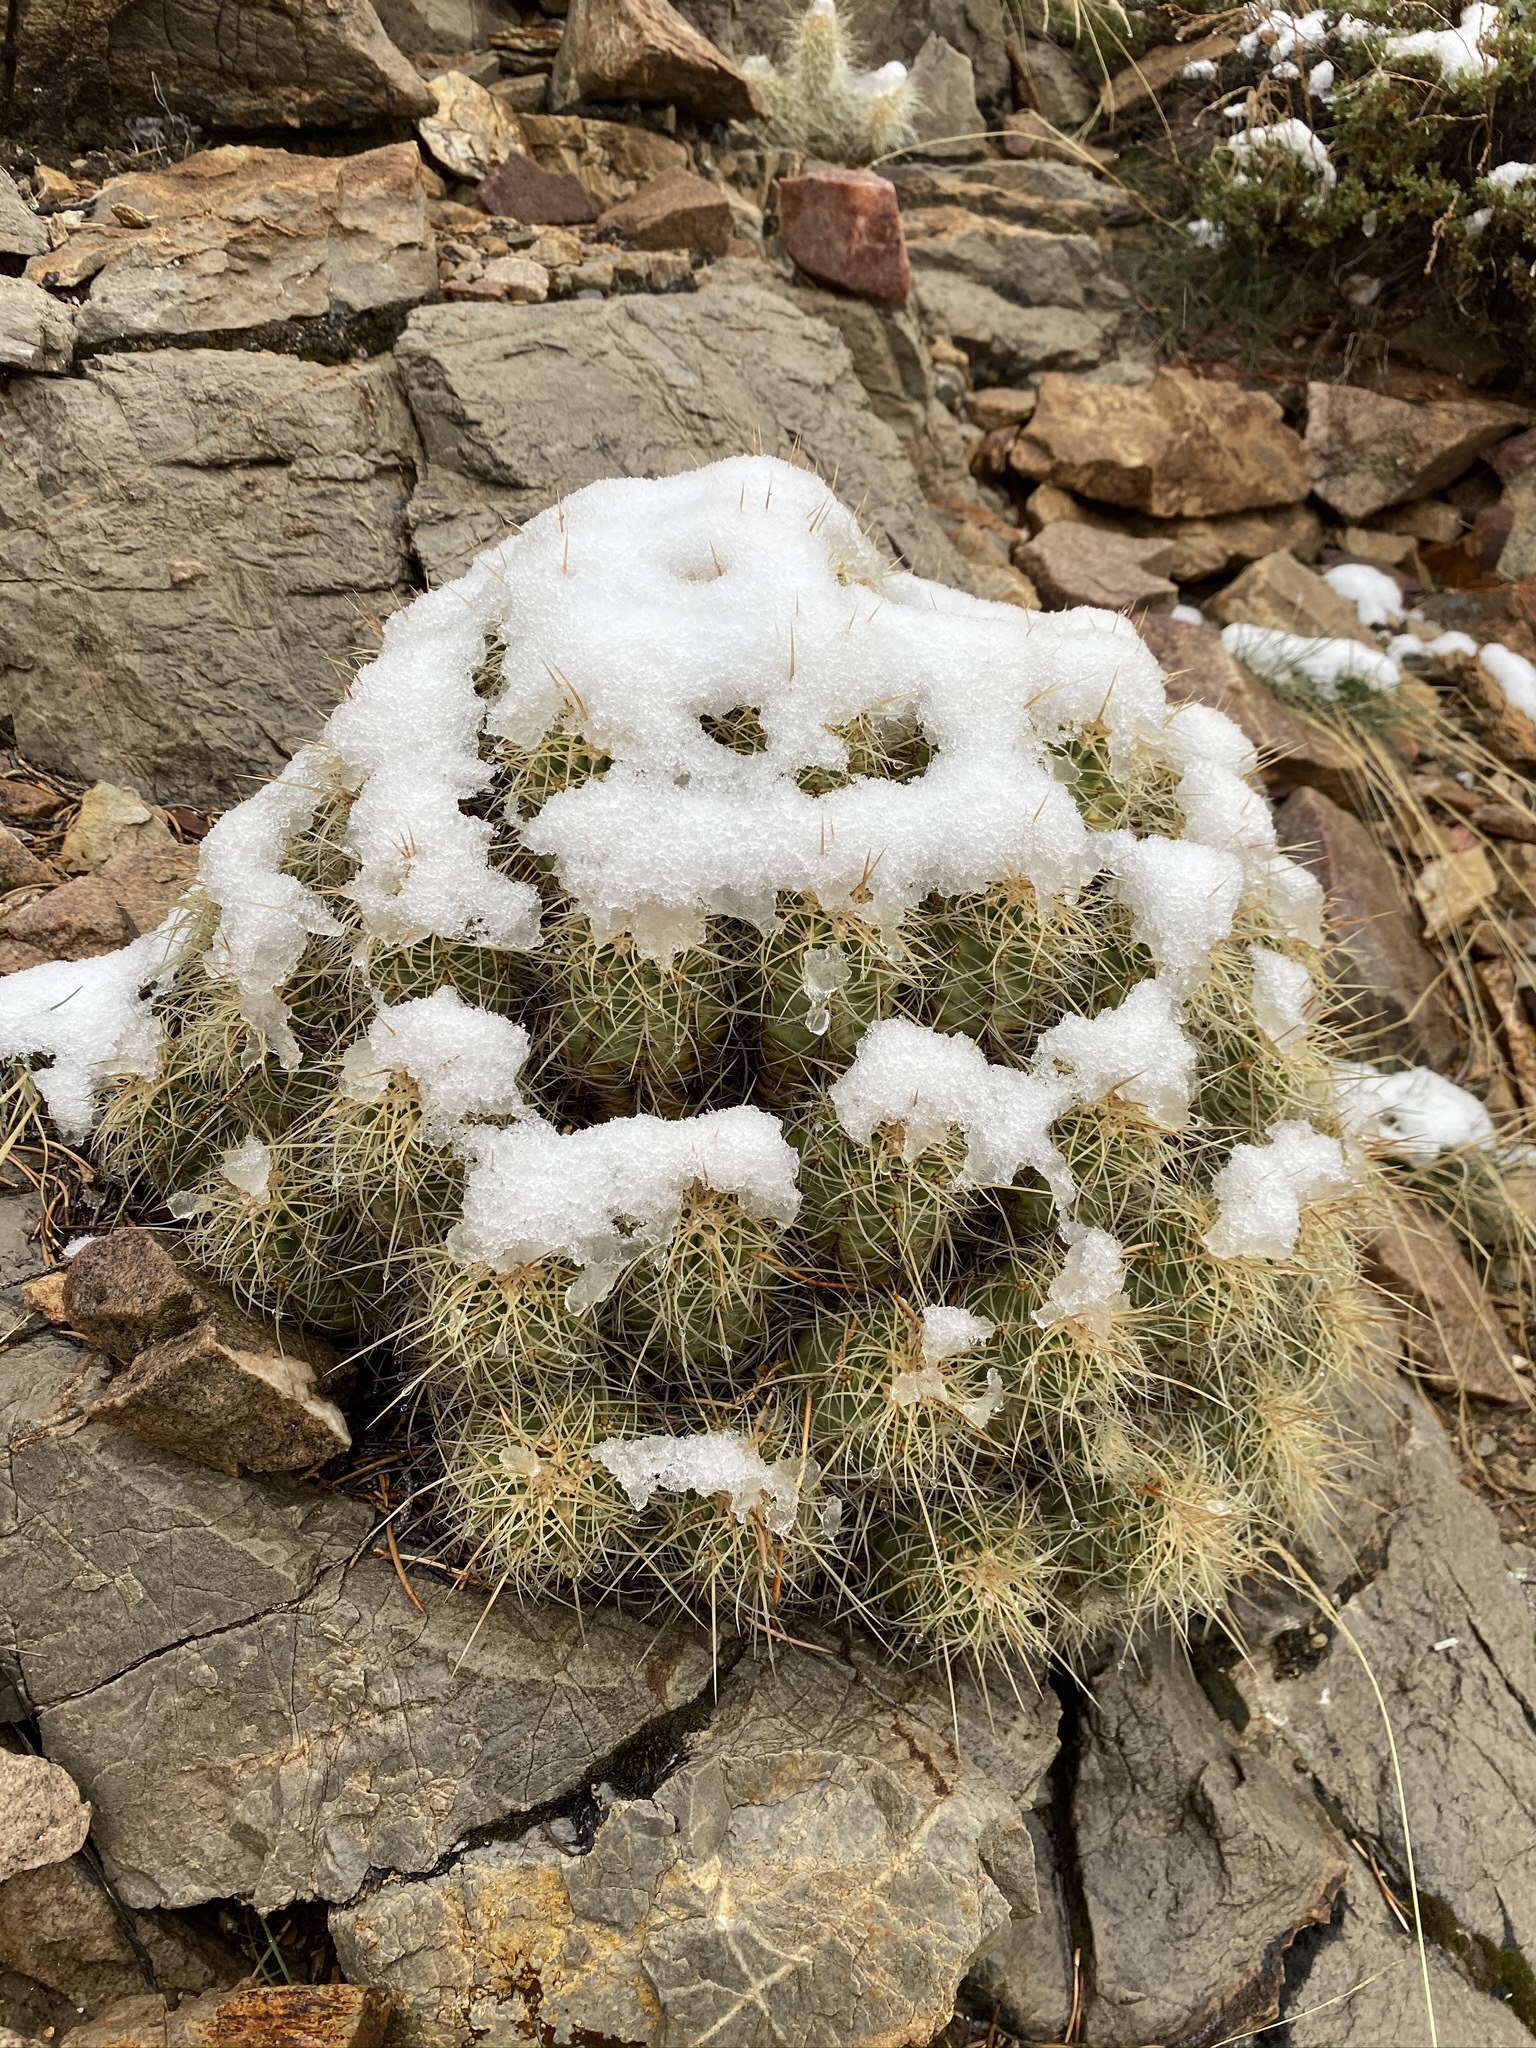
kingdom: Plantae
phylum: Tracheophyta
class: Magnoliopsida
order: Caryophyllales
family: Cactaceae
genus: Echinocereus
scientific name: Echinocereus triglochidiatus
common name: Claretcup hedgehog
